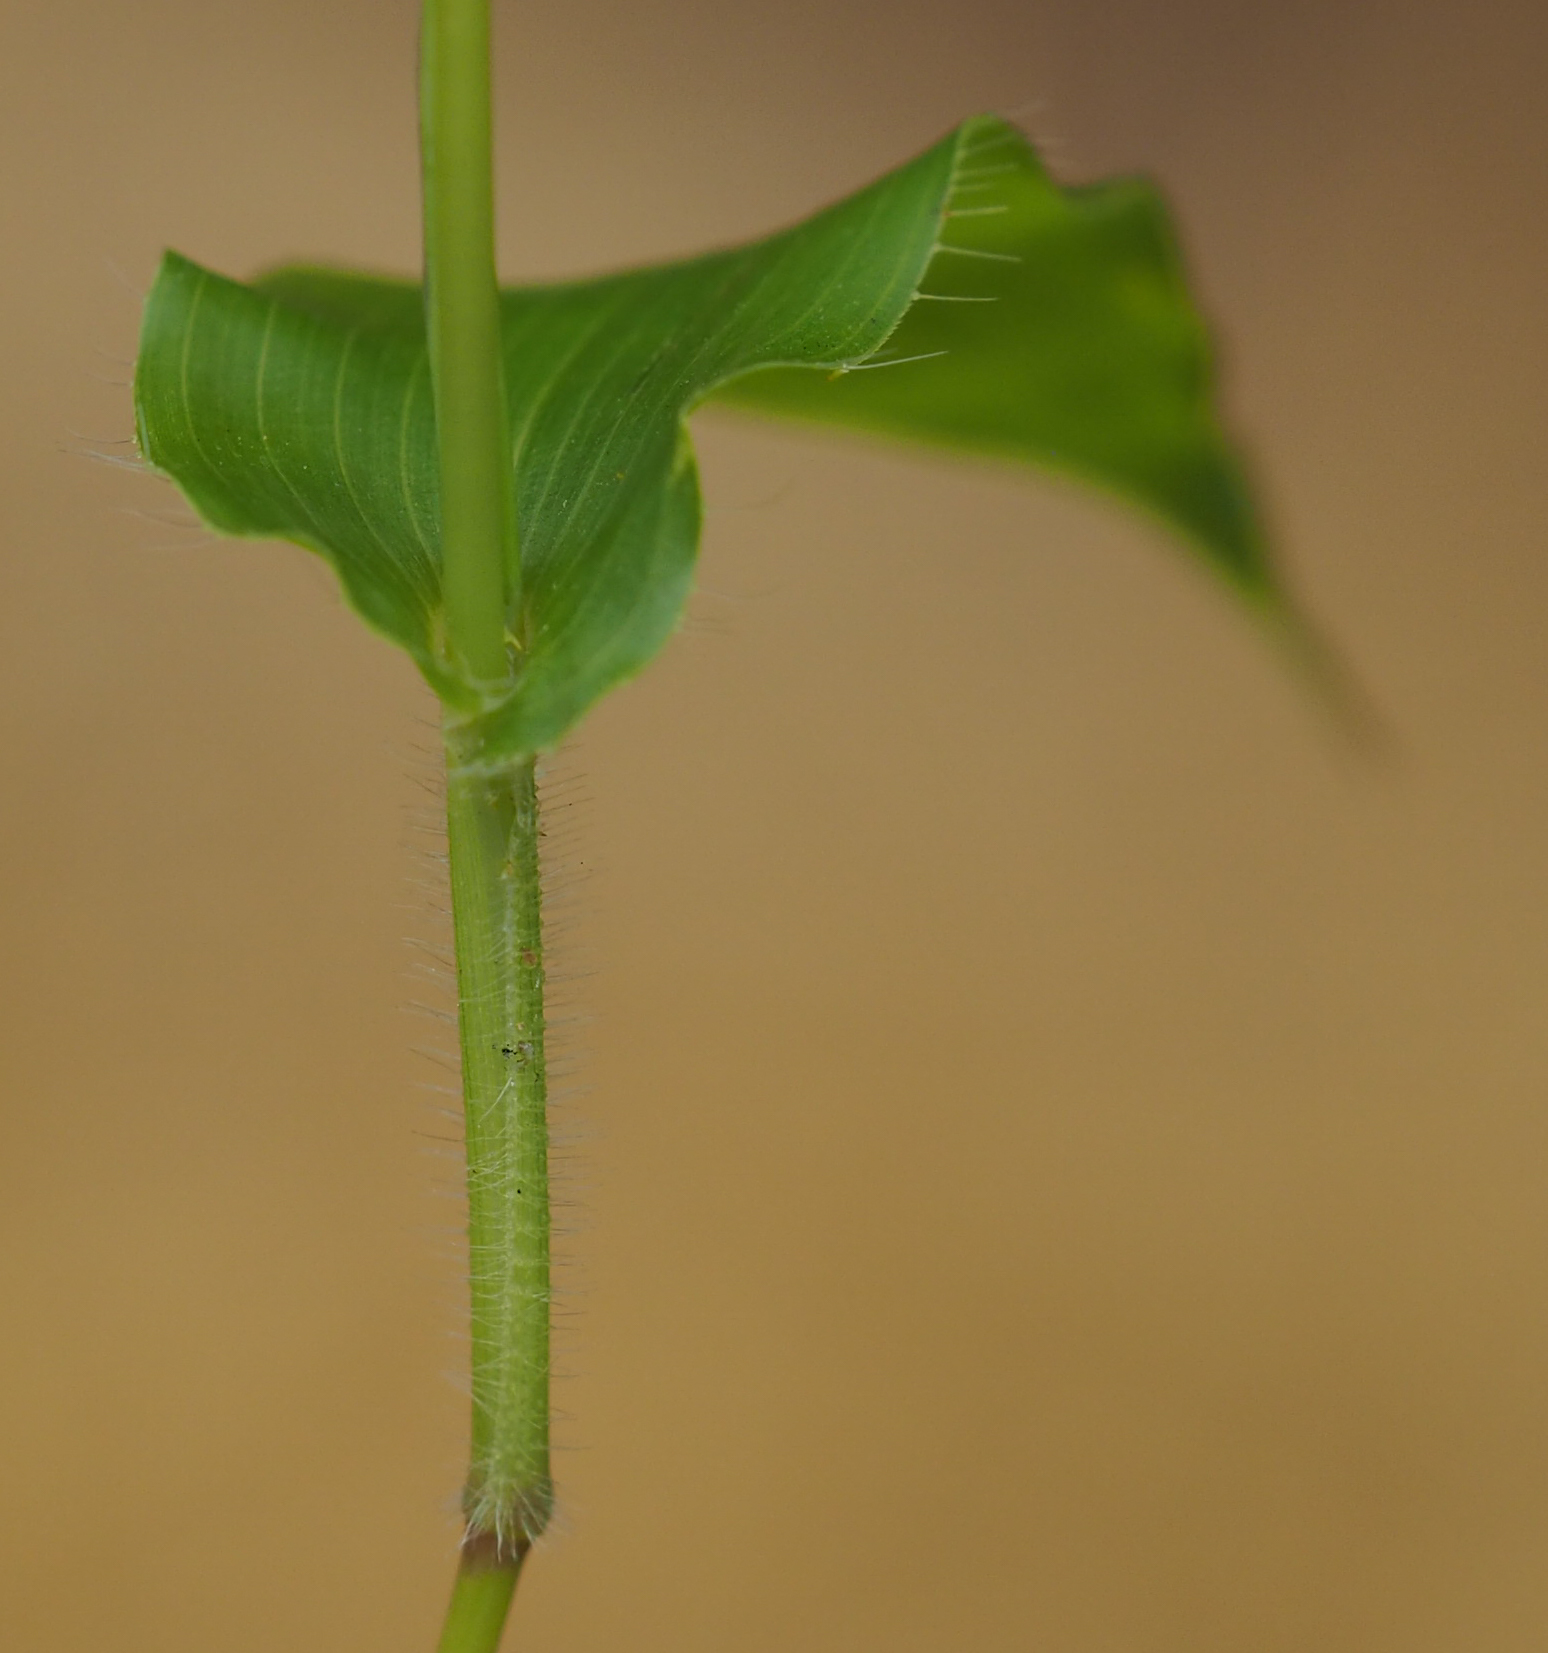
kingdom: Plantae
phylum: Tracheophyta
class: Liliopsida
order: Poales
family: Poaceae
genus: Arthraxon
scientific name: Arthraxon hispidus
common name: Small carpgrass
